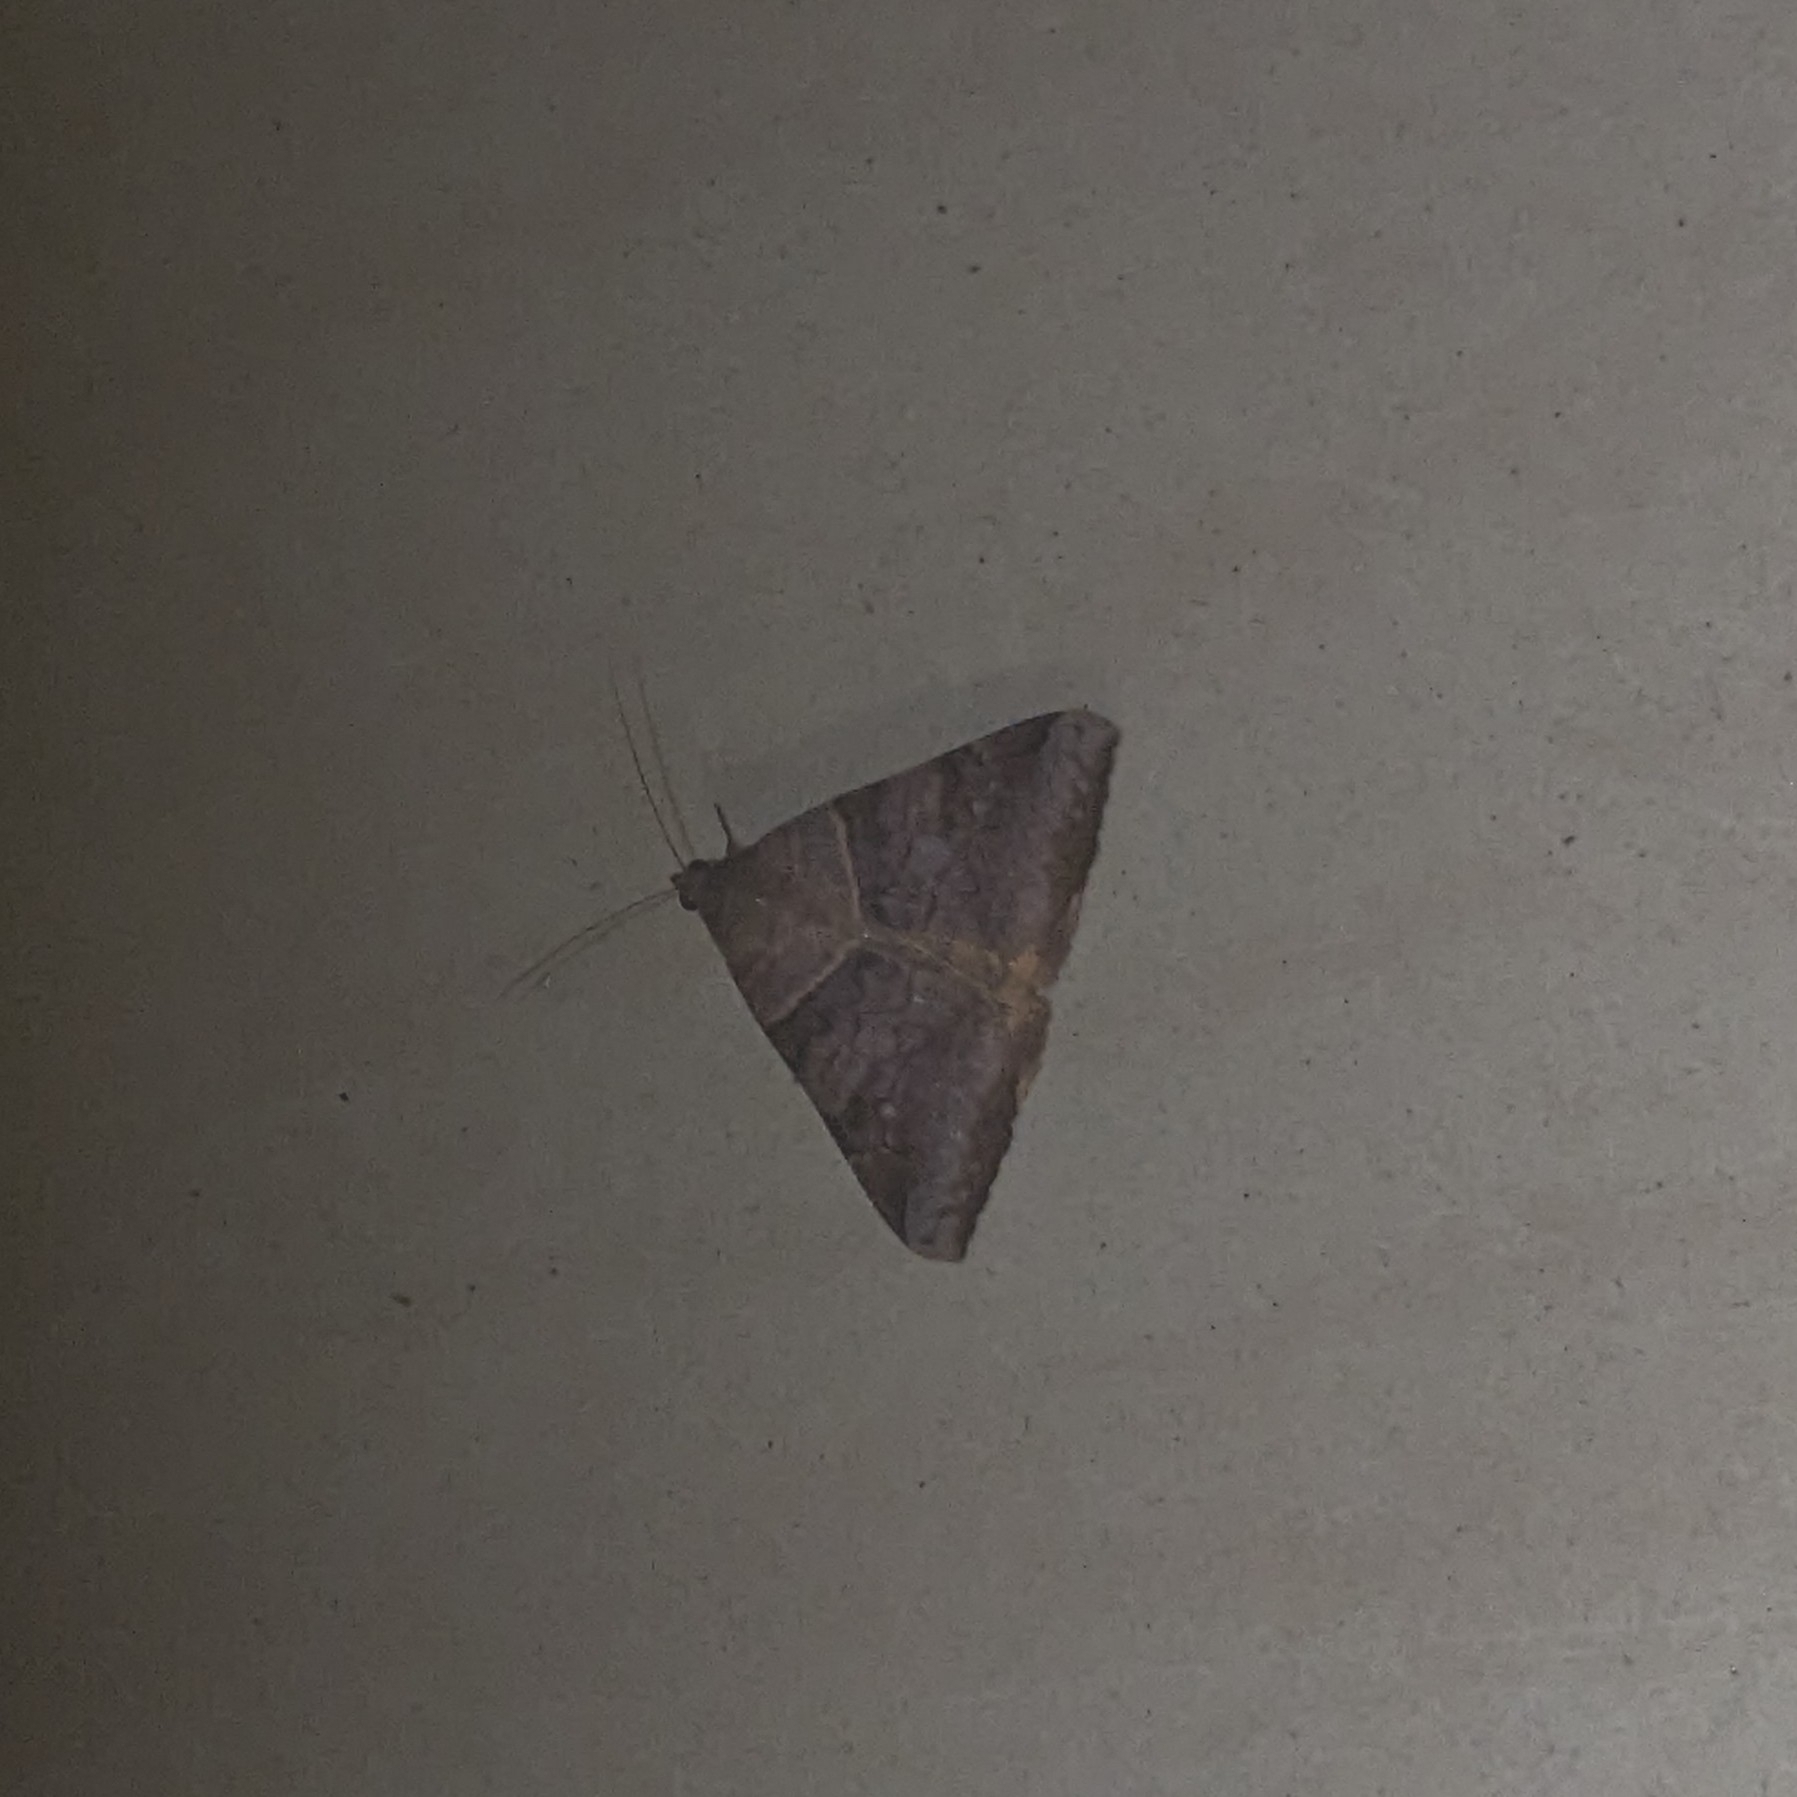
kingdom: Animalia
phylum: Arthropoda
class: Insecta
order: Lepidoptera
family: Erebidae
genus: Mocis
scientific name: Mocis undata
